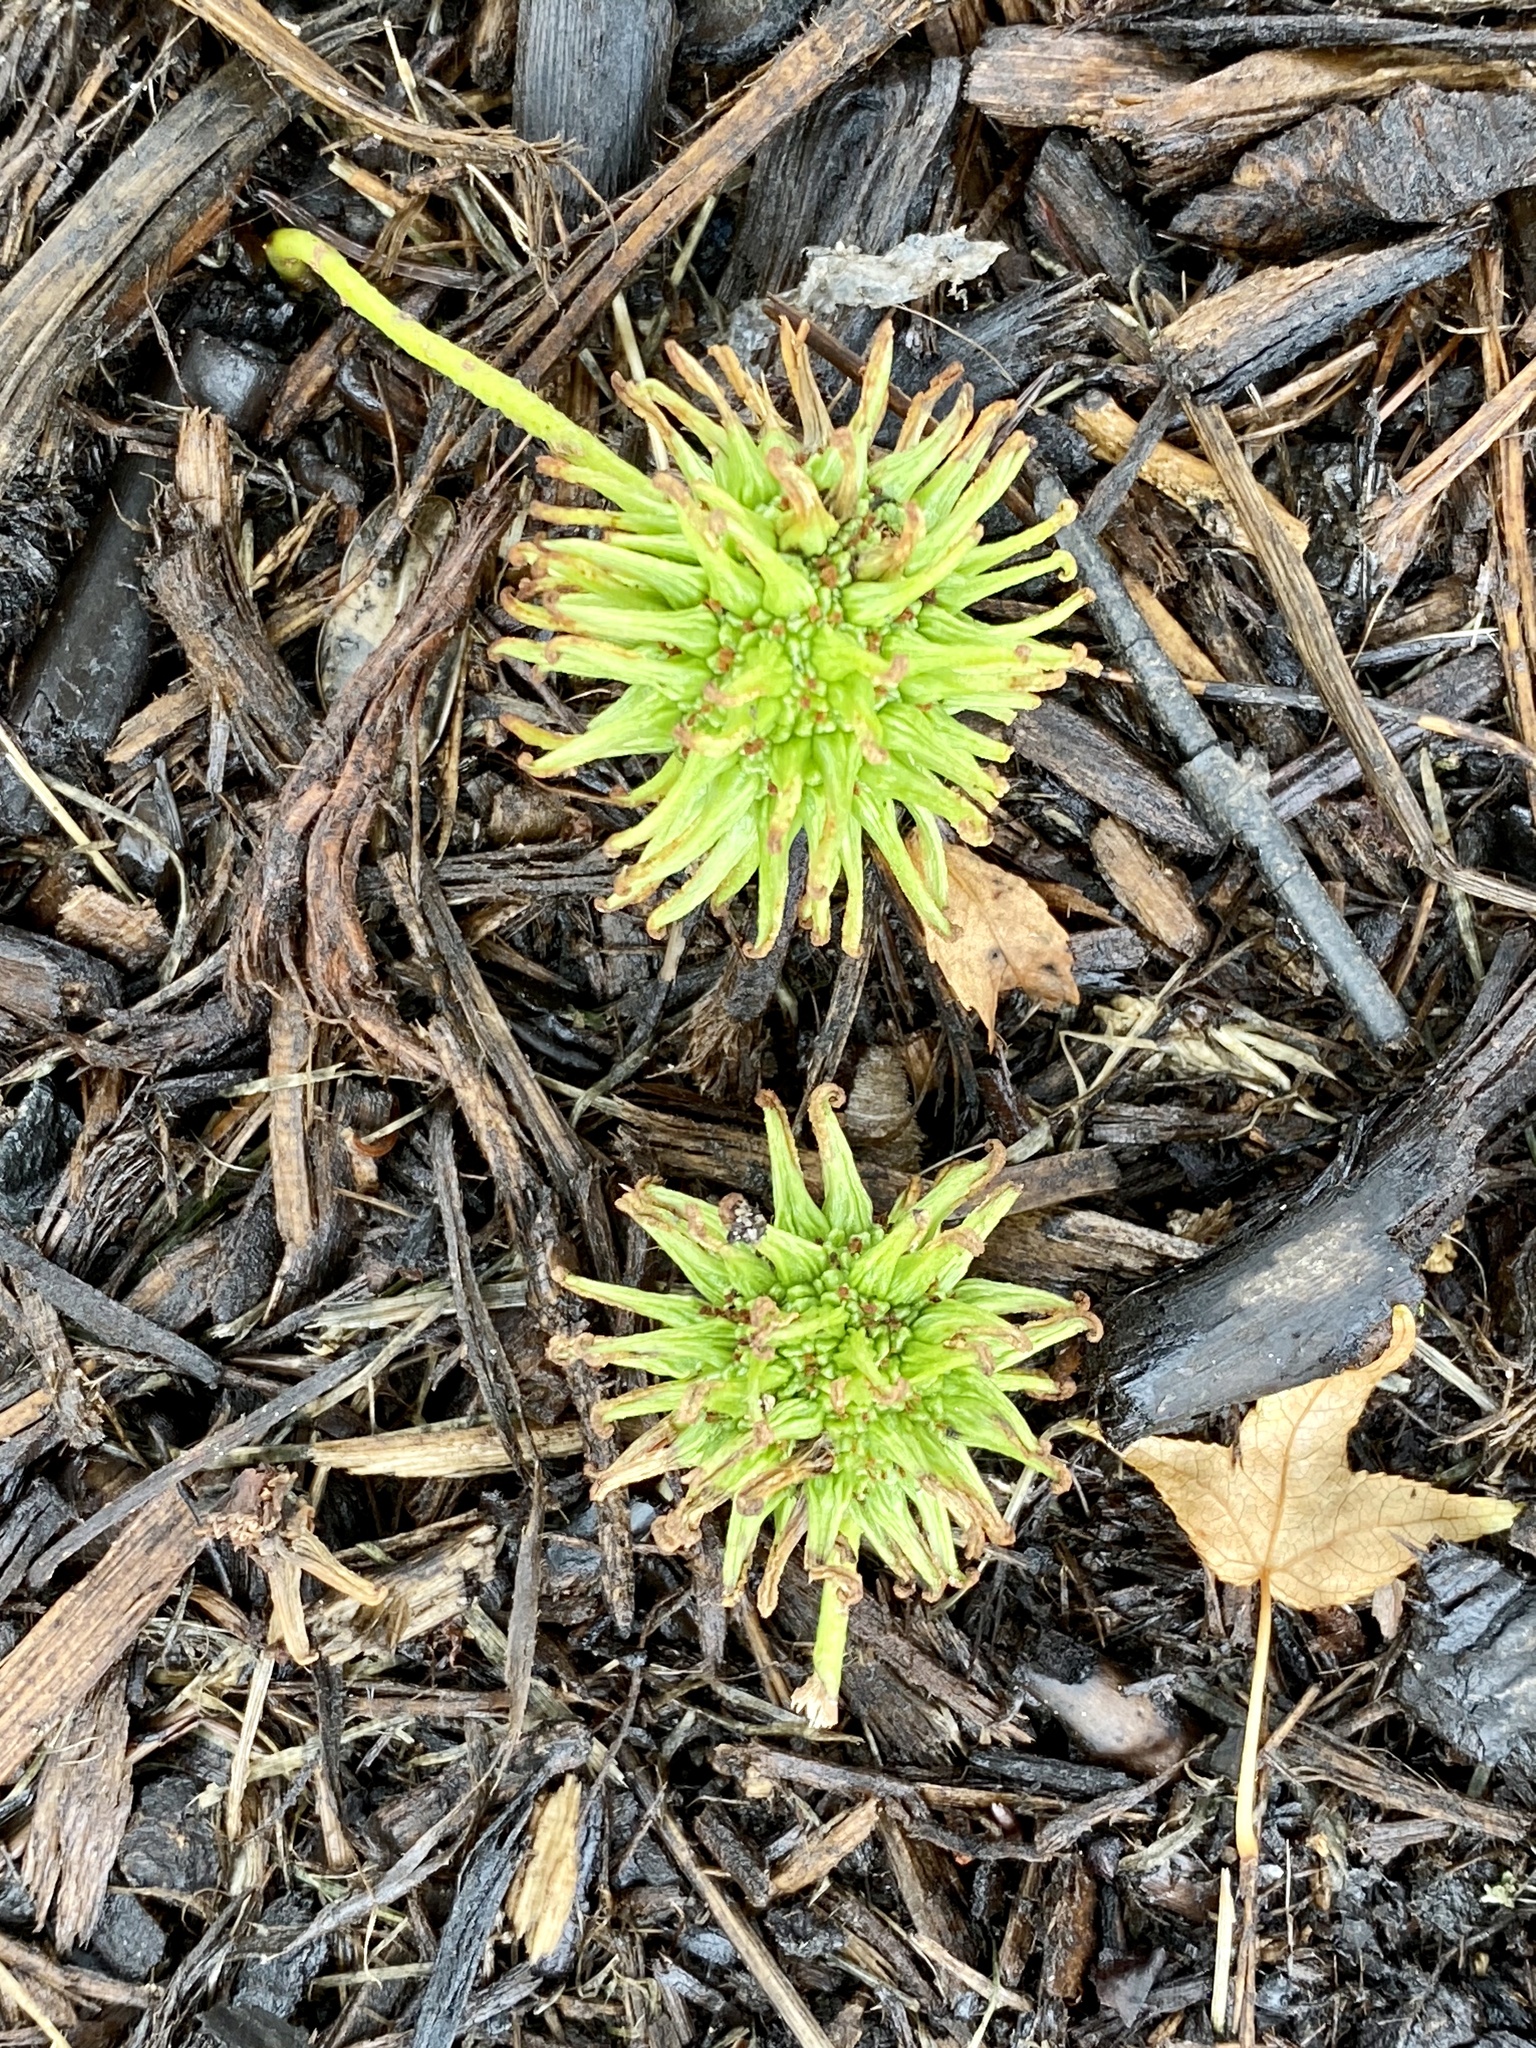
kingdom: Plantae
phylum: Tracheophyta
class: Magnoliopsida
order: Saxifragales
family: Altingiaceae
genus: Liquidambar
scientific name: Liquidambar styraciflua
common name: Sweet gum
